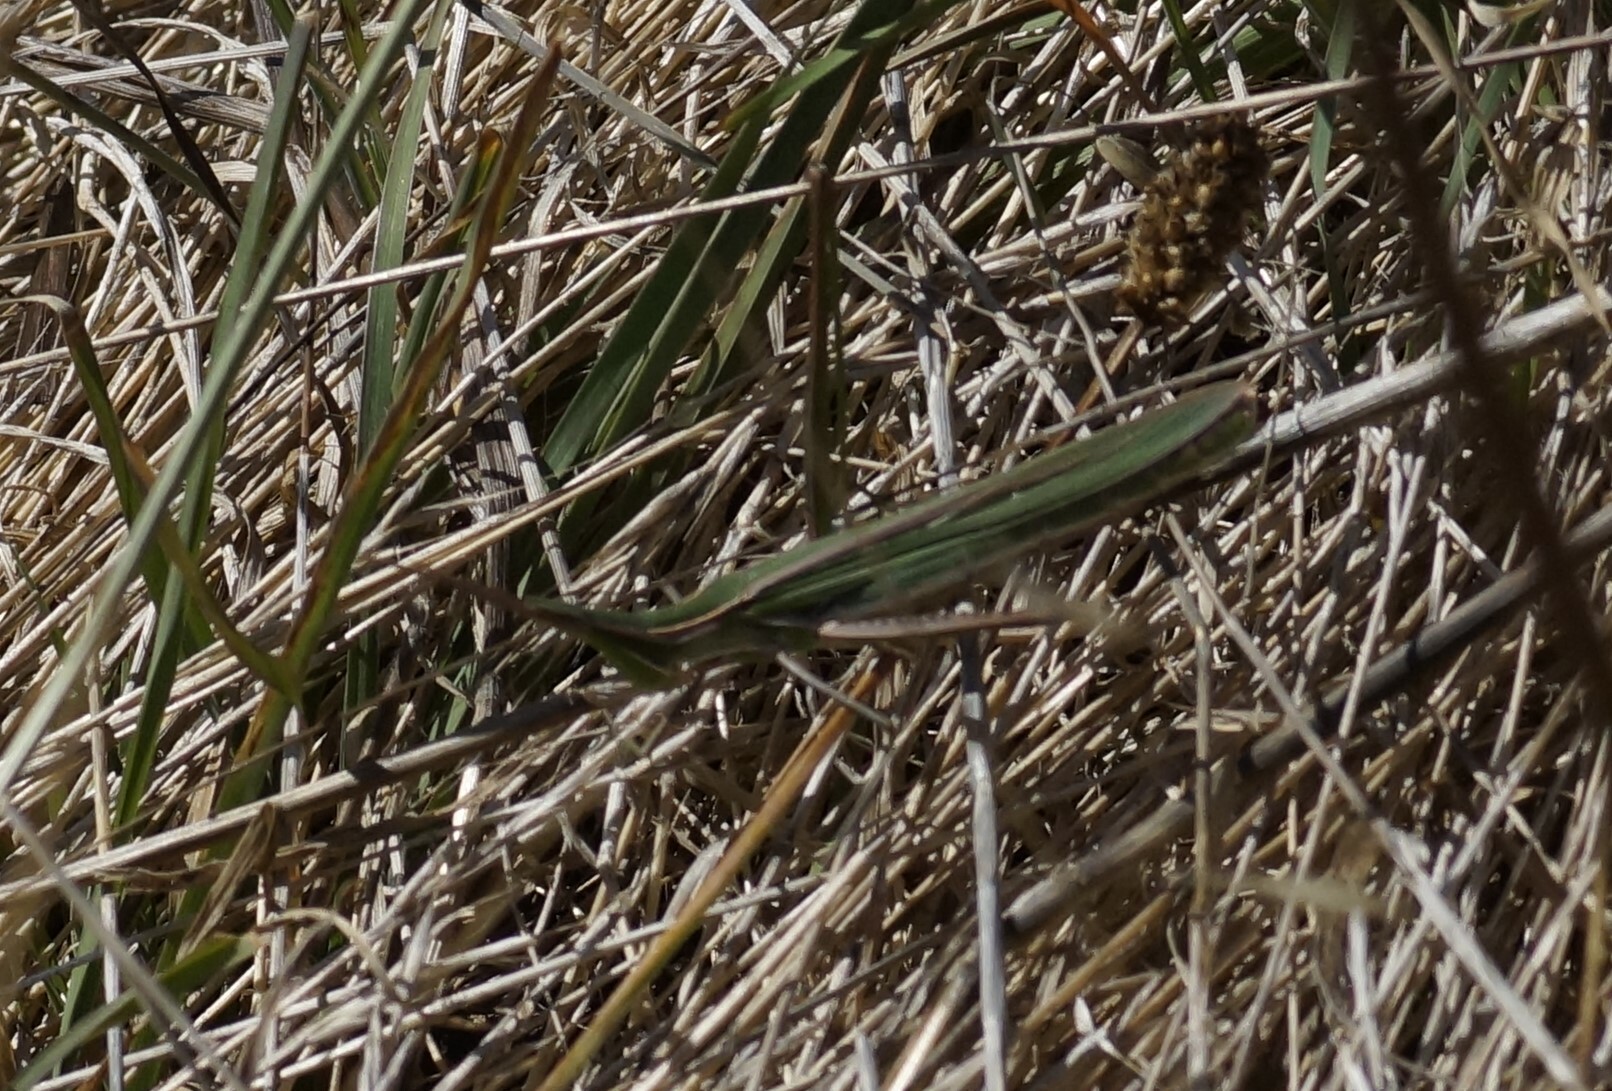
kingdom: Animalia
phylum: Arthropoda
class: Insecta
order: Orthoptera
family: Acrididae
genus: Acrida
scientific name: Acrida conica
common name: Giant green slantface
